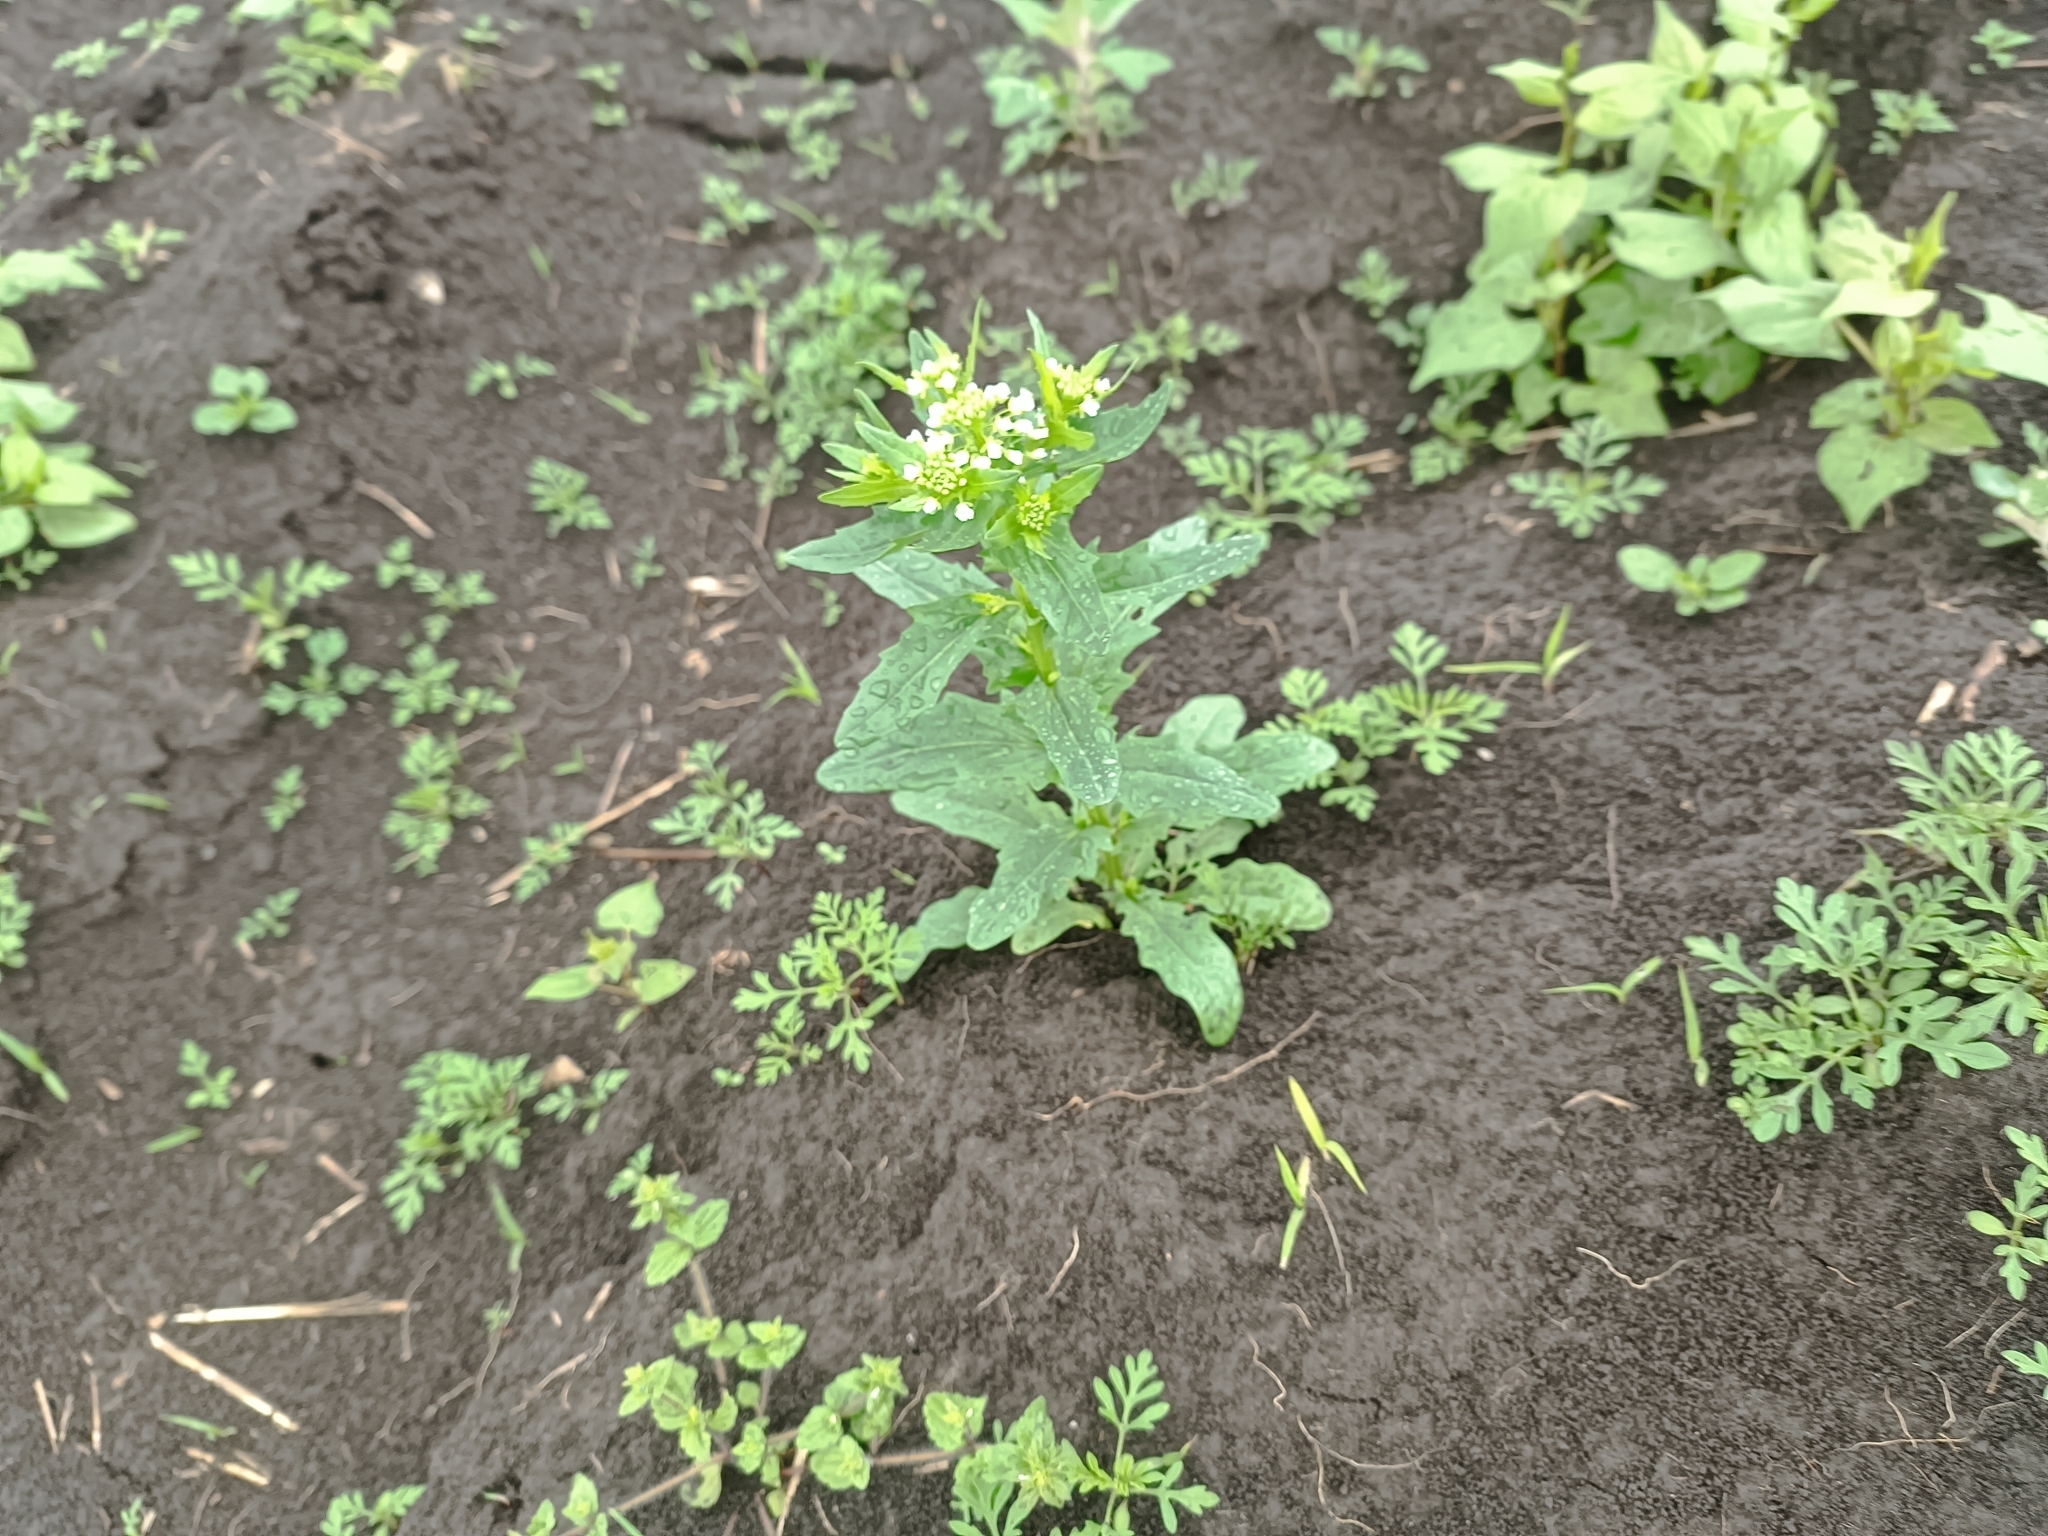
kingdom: Plantae
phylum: Tracheophyta
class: Magnoliopsida
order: Brassicales
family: Brassicaceae
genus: Thlaspi
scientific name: Thlaspi arvense
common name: Field pennycress
